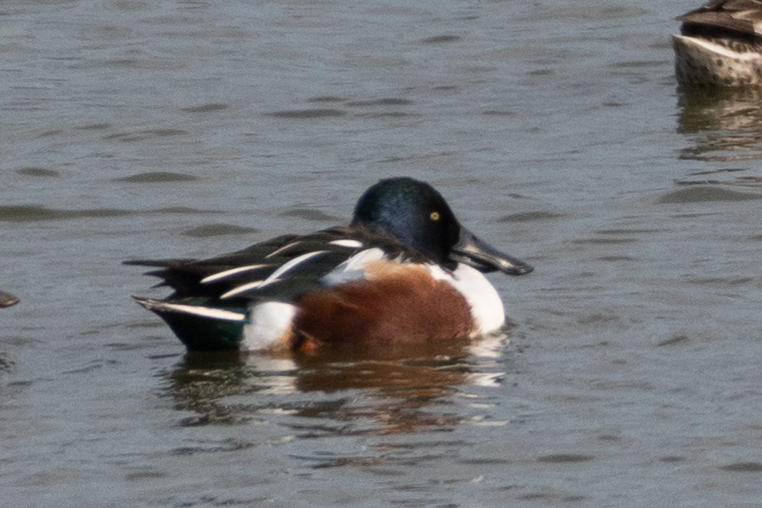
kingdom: Animalia
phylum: Chordata
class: Aves
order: Anseriformes
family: Anatidae
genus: Spatula
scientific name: Spatula clypeata
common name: Northern shoveler
